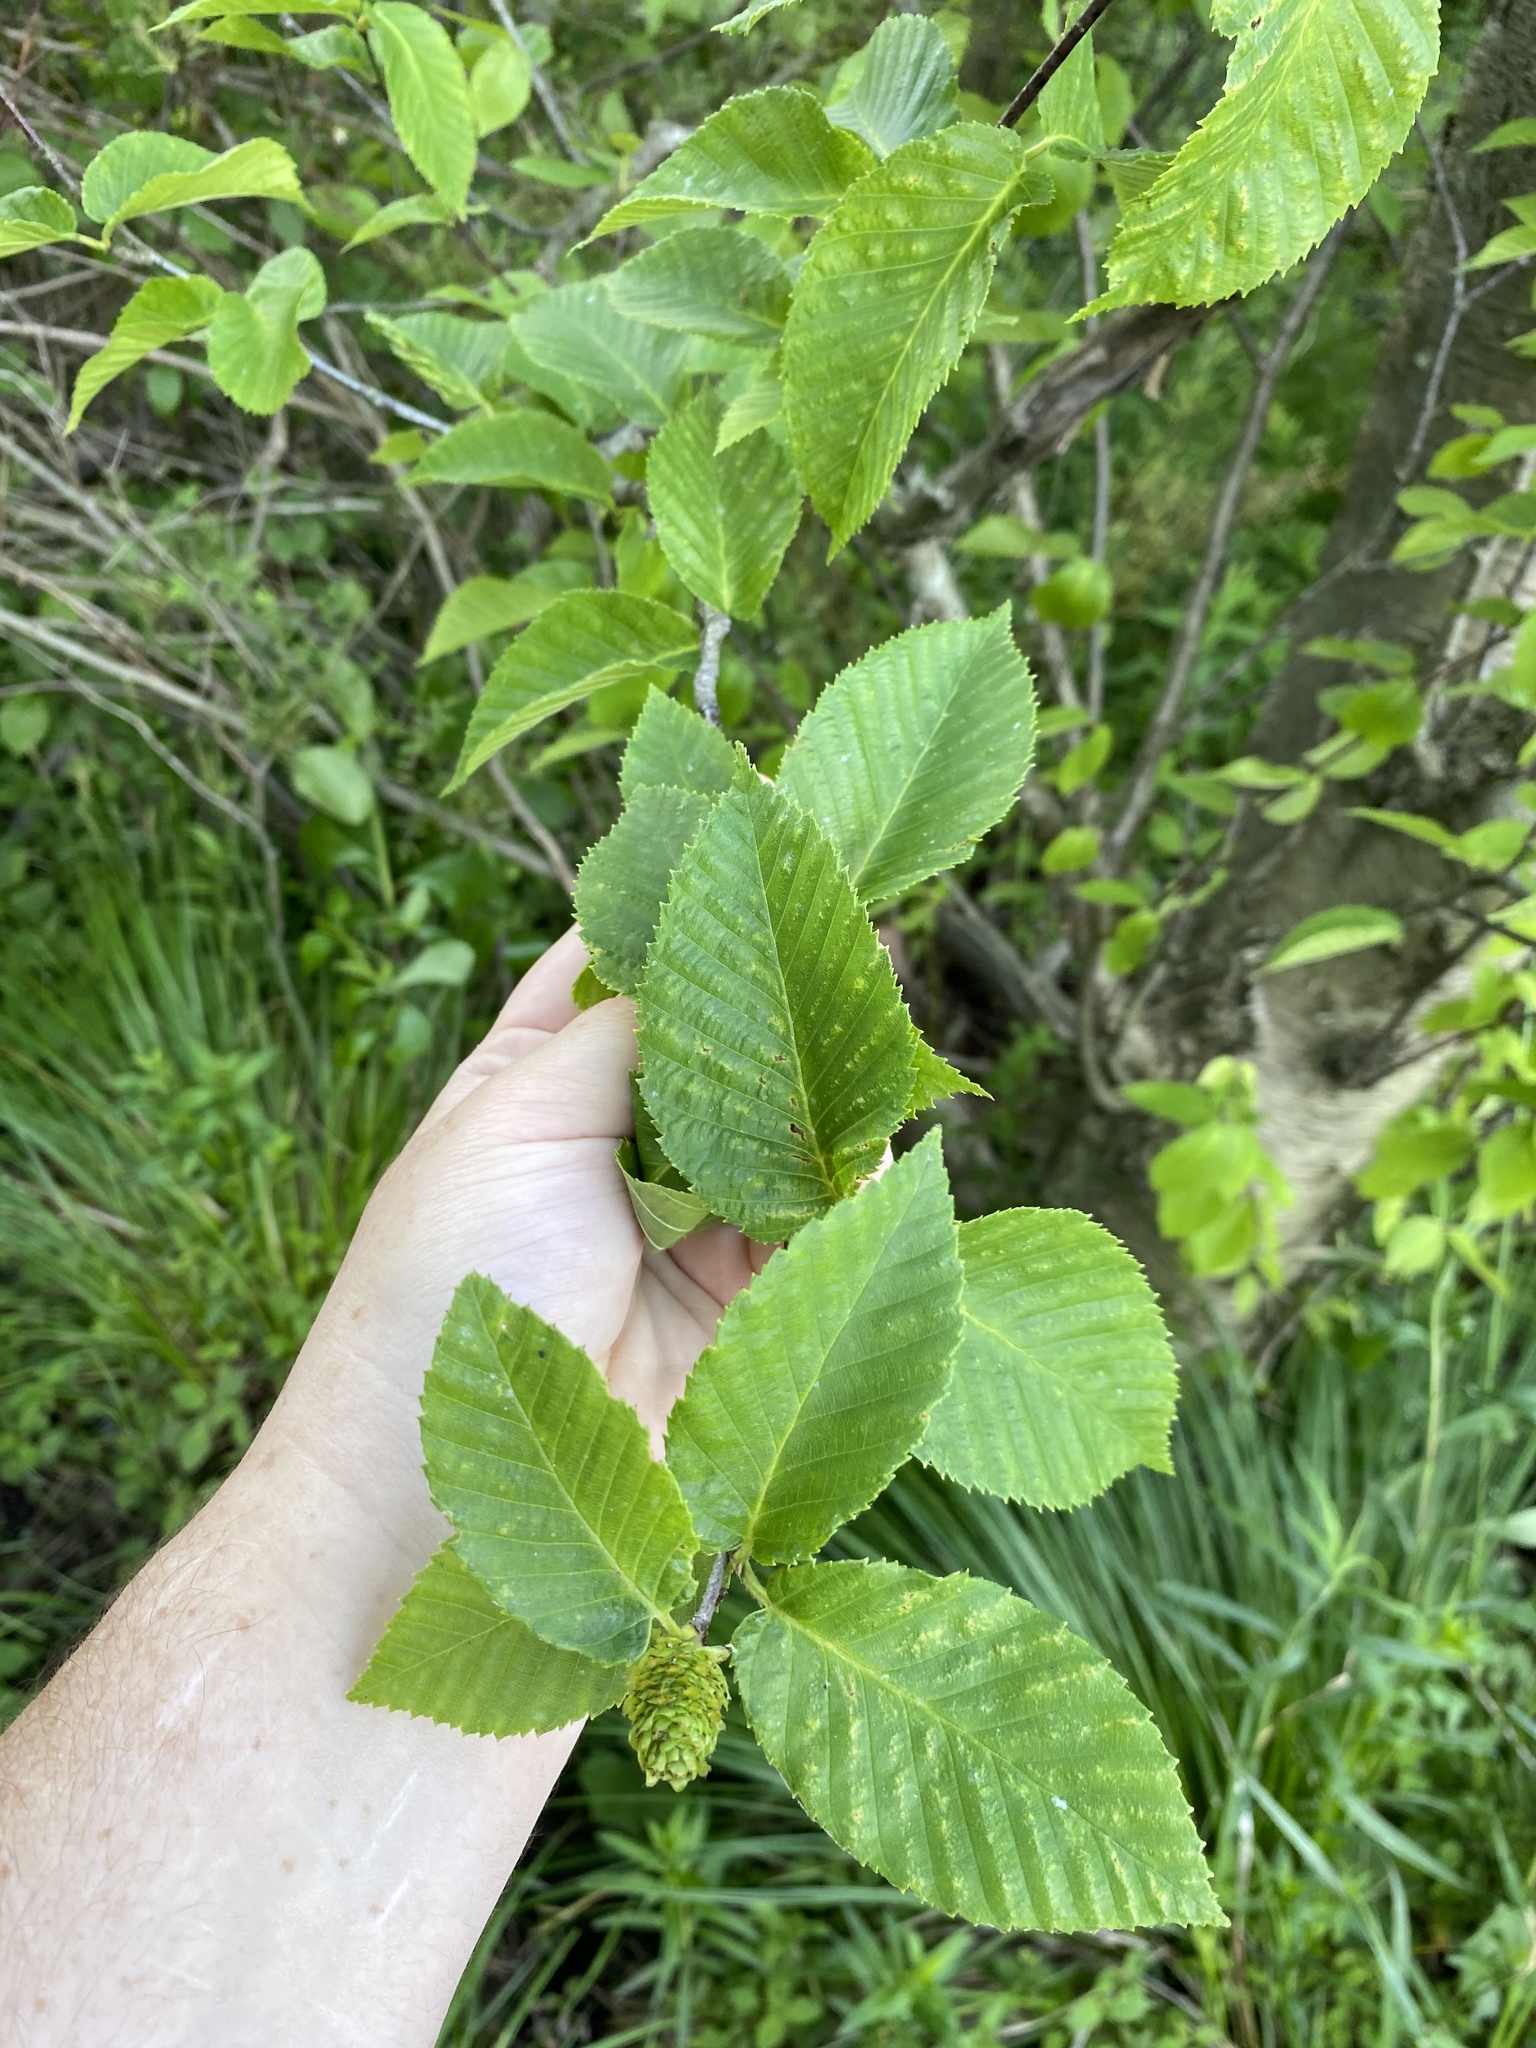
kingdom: Plantae
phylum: Tracheophyta
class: Magnoliopsida
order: Fagales
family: Betulaceae
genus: Betula
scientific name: Betula alleghaniensis
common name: Yellow birch
